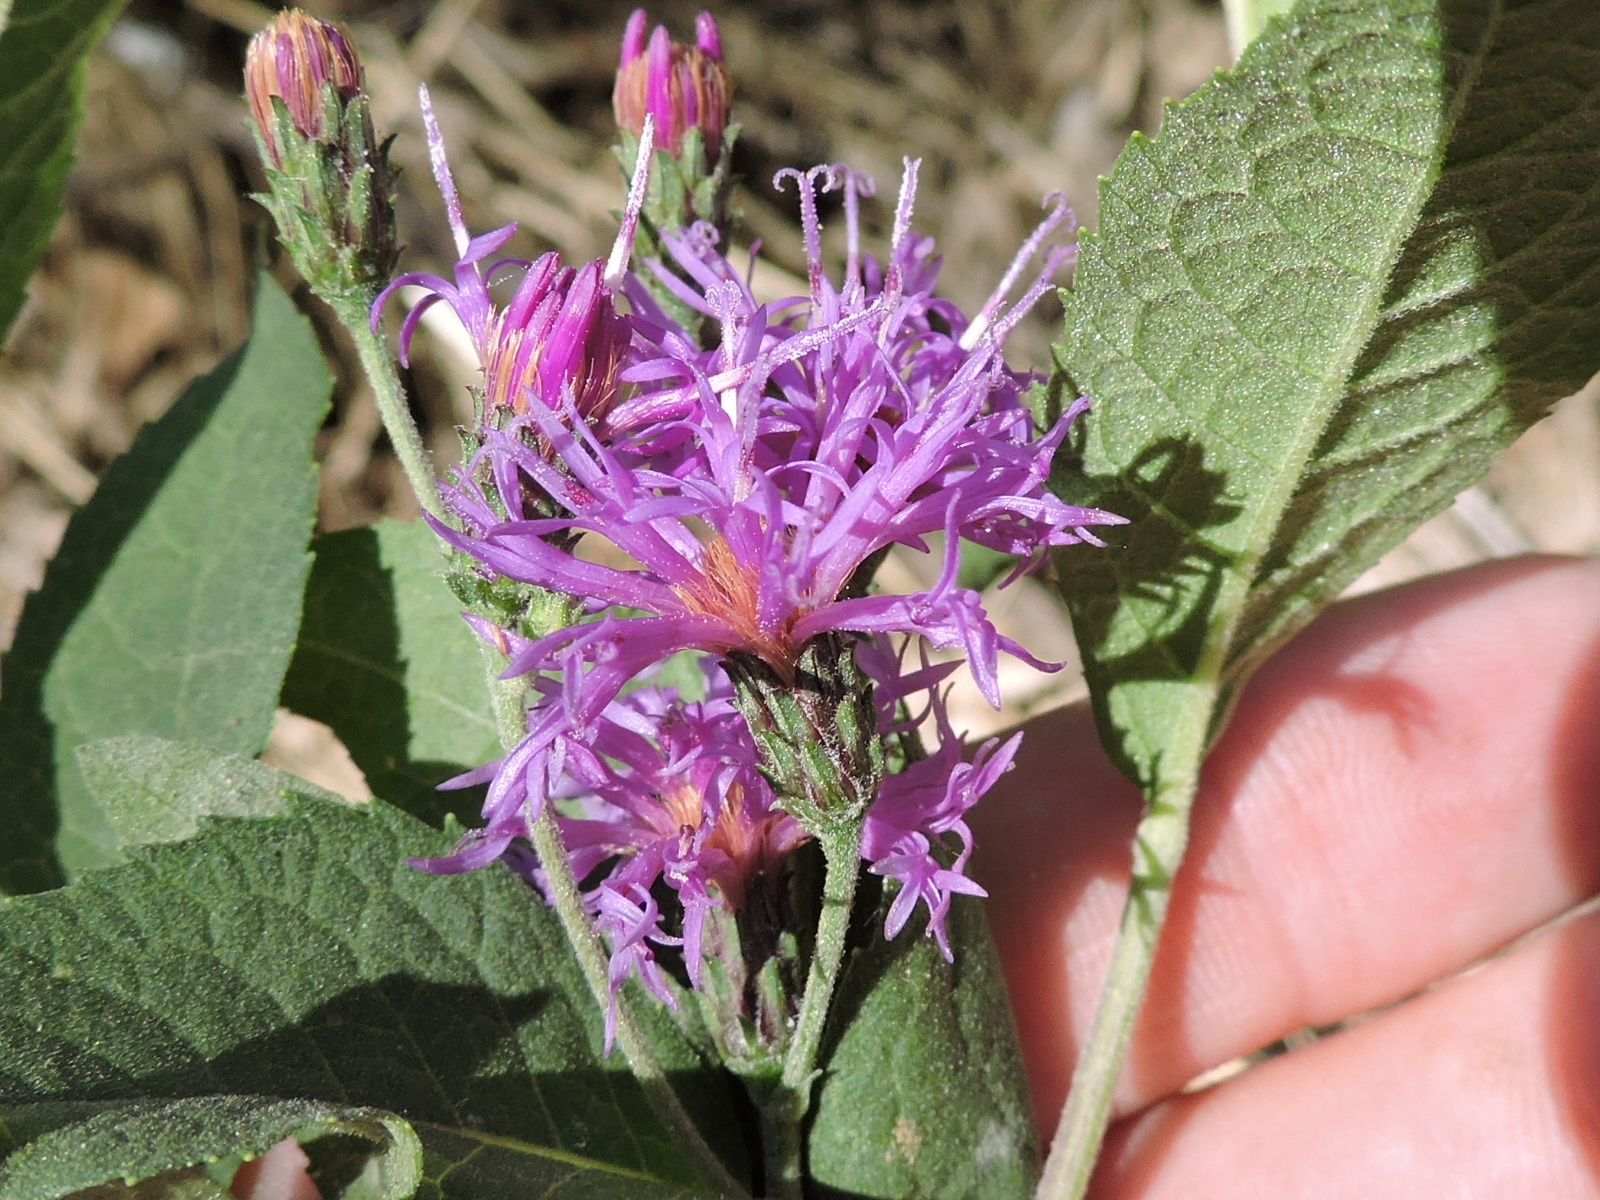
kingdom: Plantae
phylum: Tracheophyta
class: Magnoliopsida
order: Asterales
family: Asteraceae
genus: Vernonia
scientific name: Vernonia baldwinii
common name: Western ironweed
